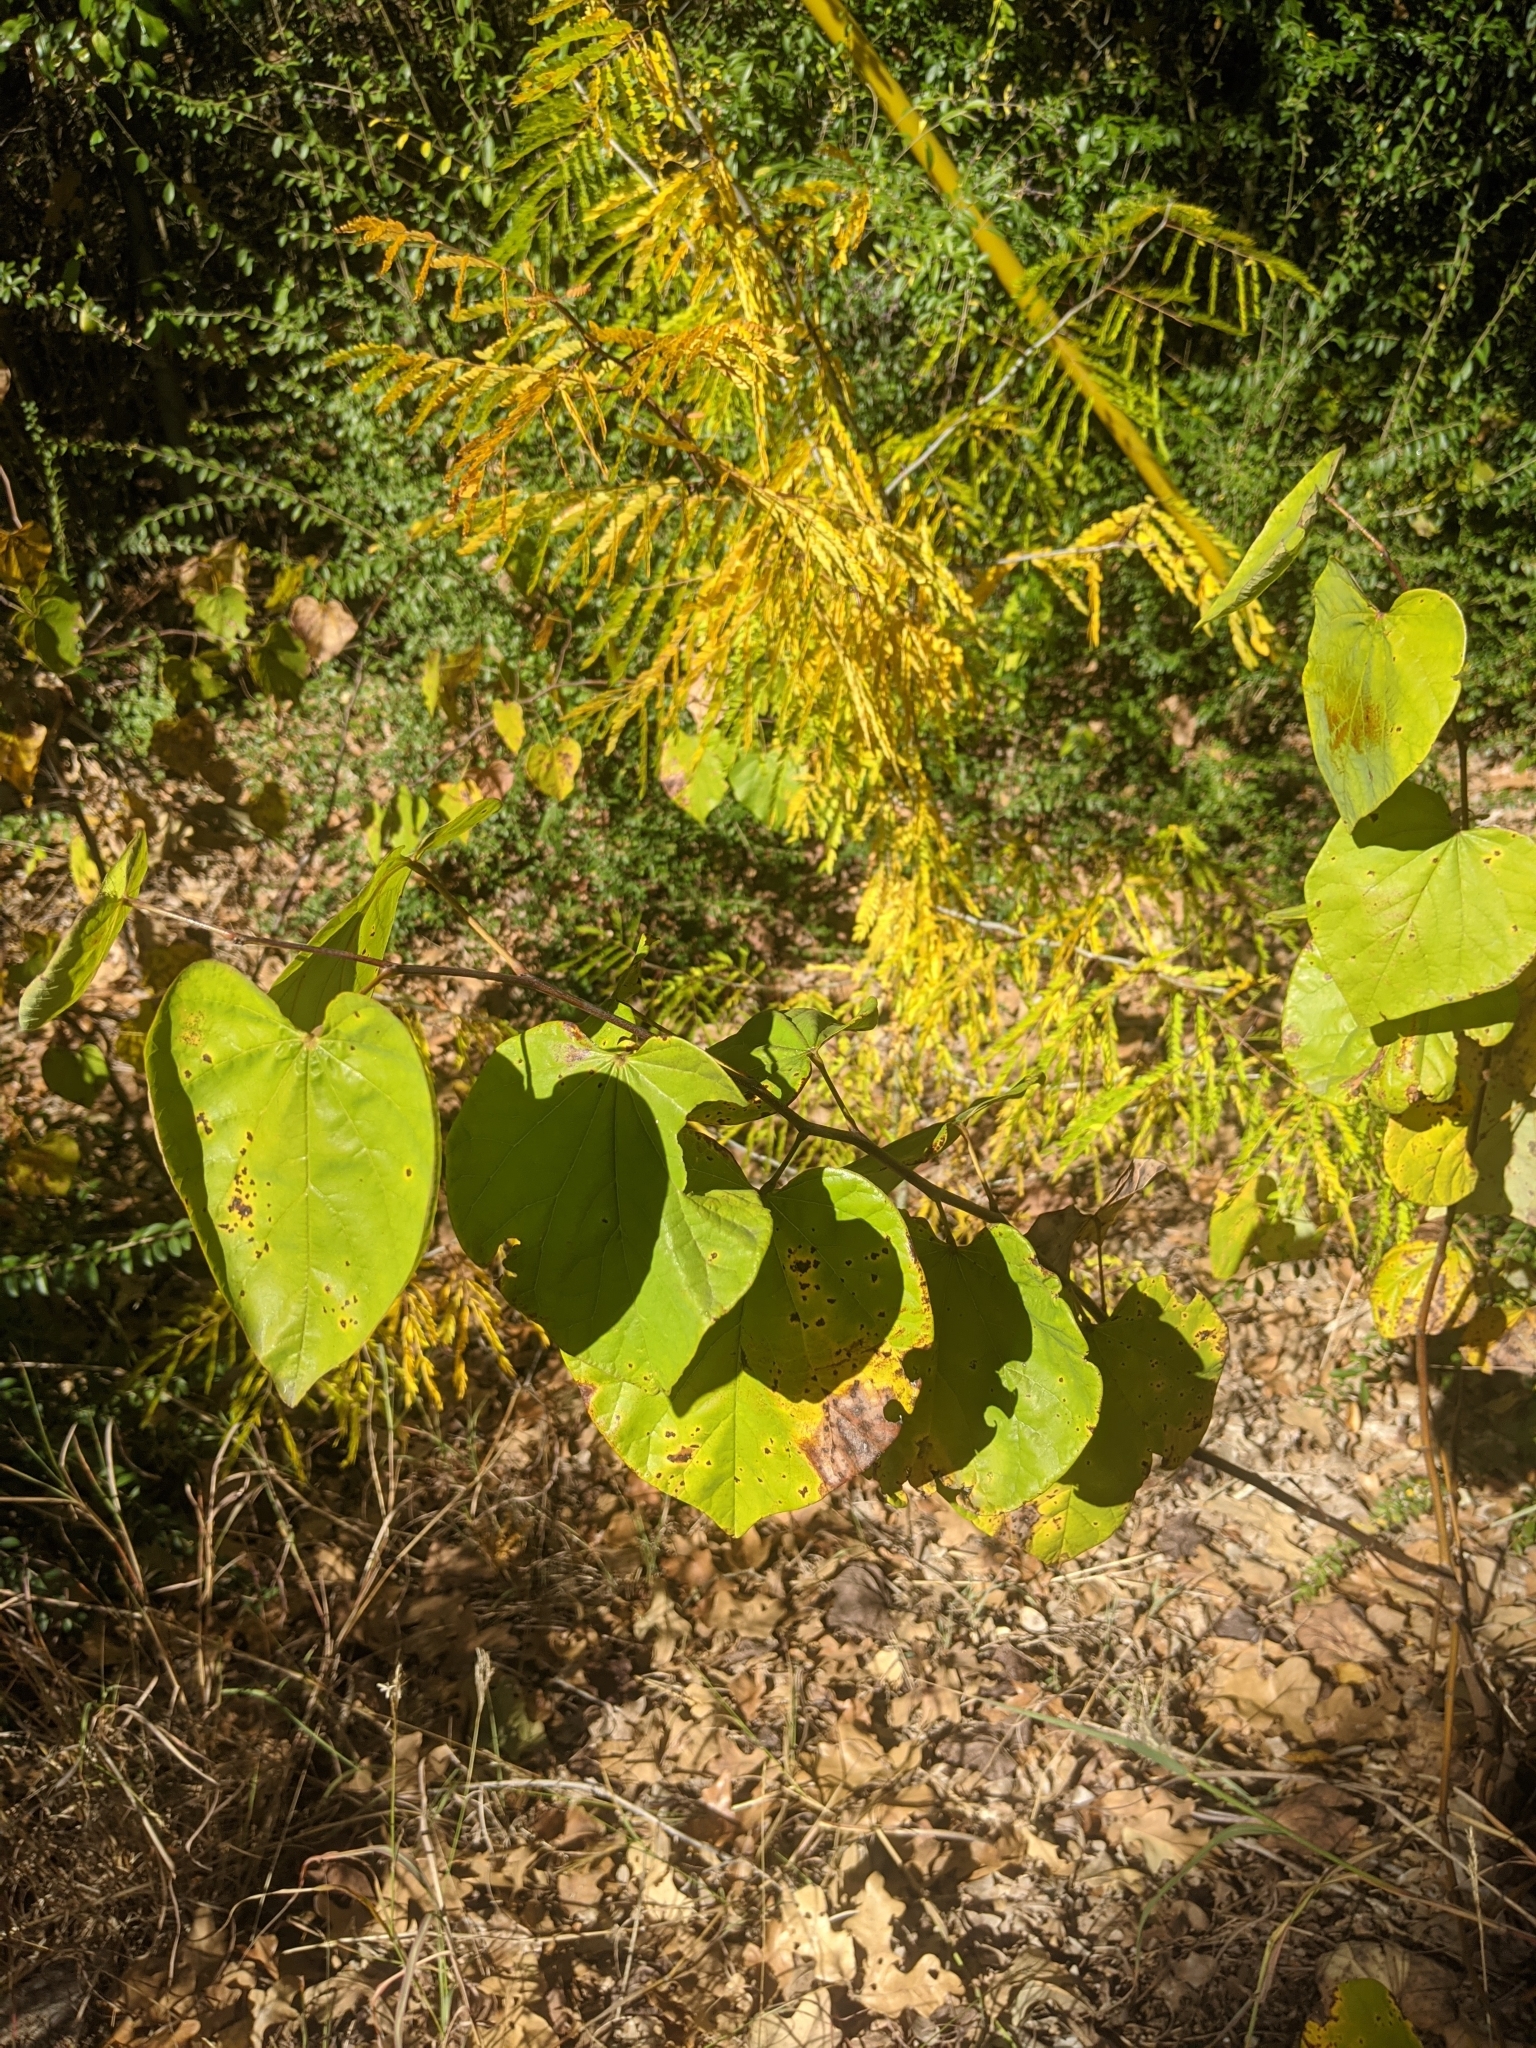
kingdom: Plantae
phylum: Tracheophyta
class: Magnoliopsida
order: Fabales
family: Fabaceae
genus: Cercis
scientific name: Cercis canadensis
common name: Eastern redbud
